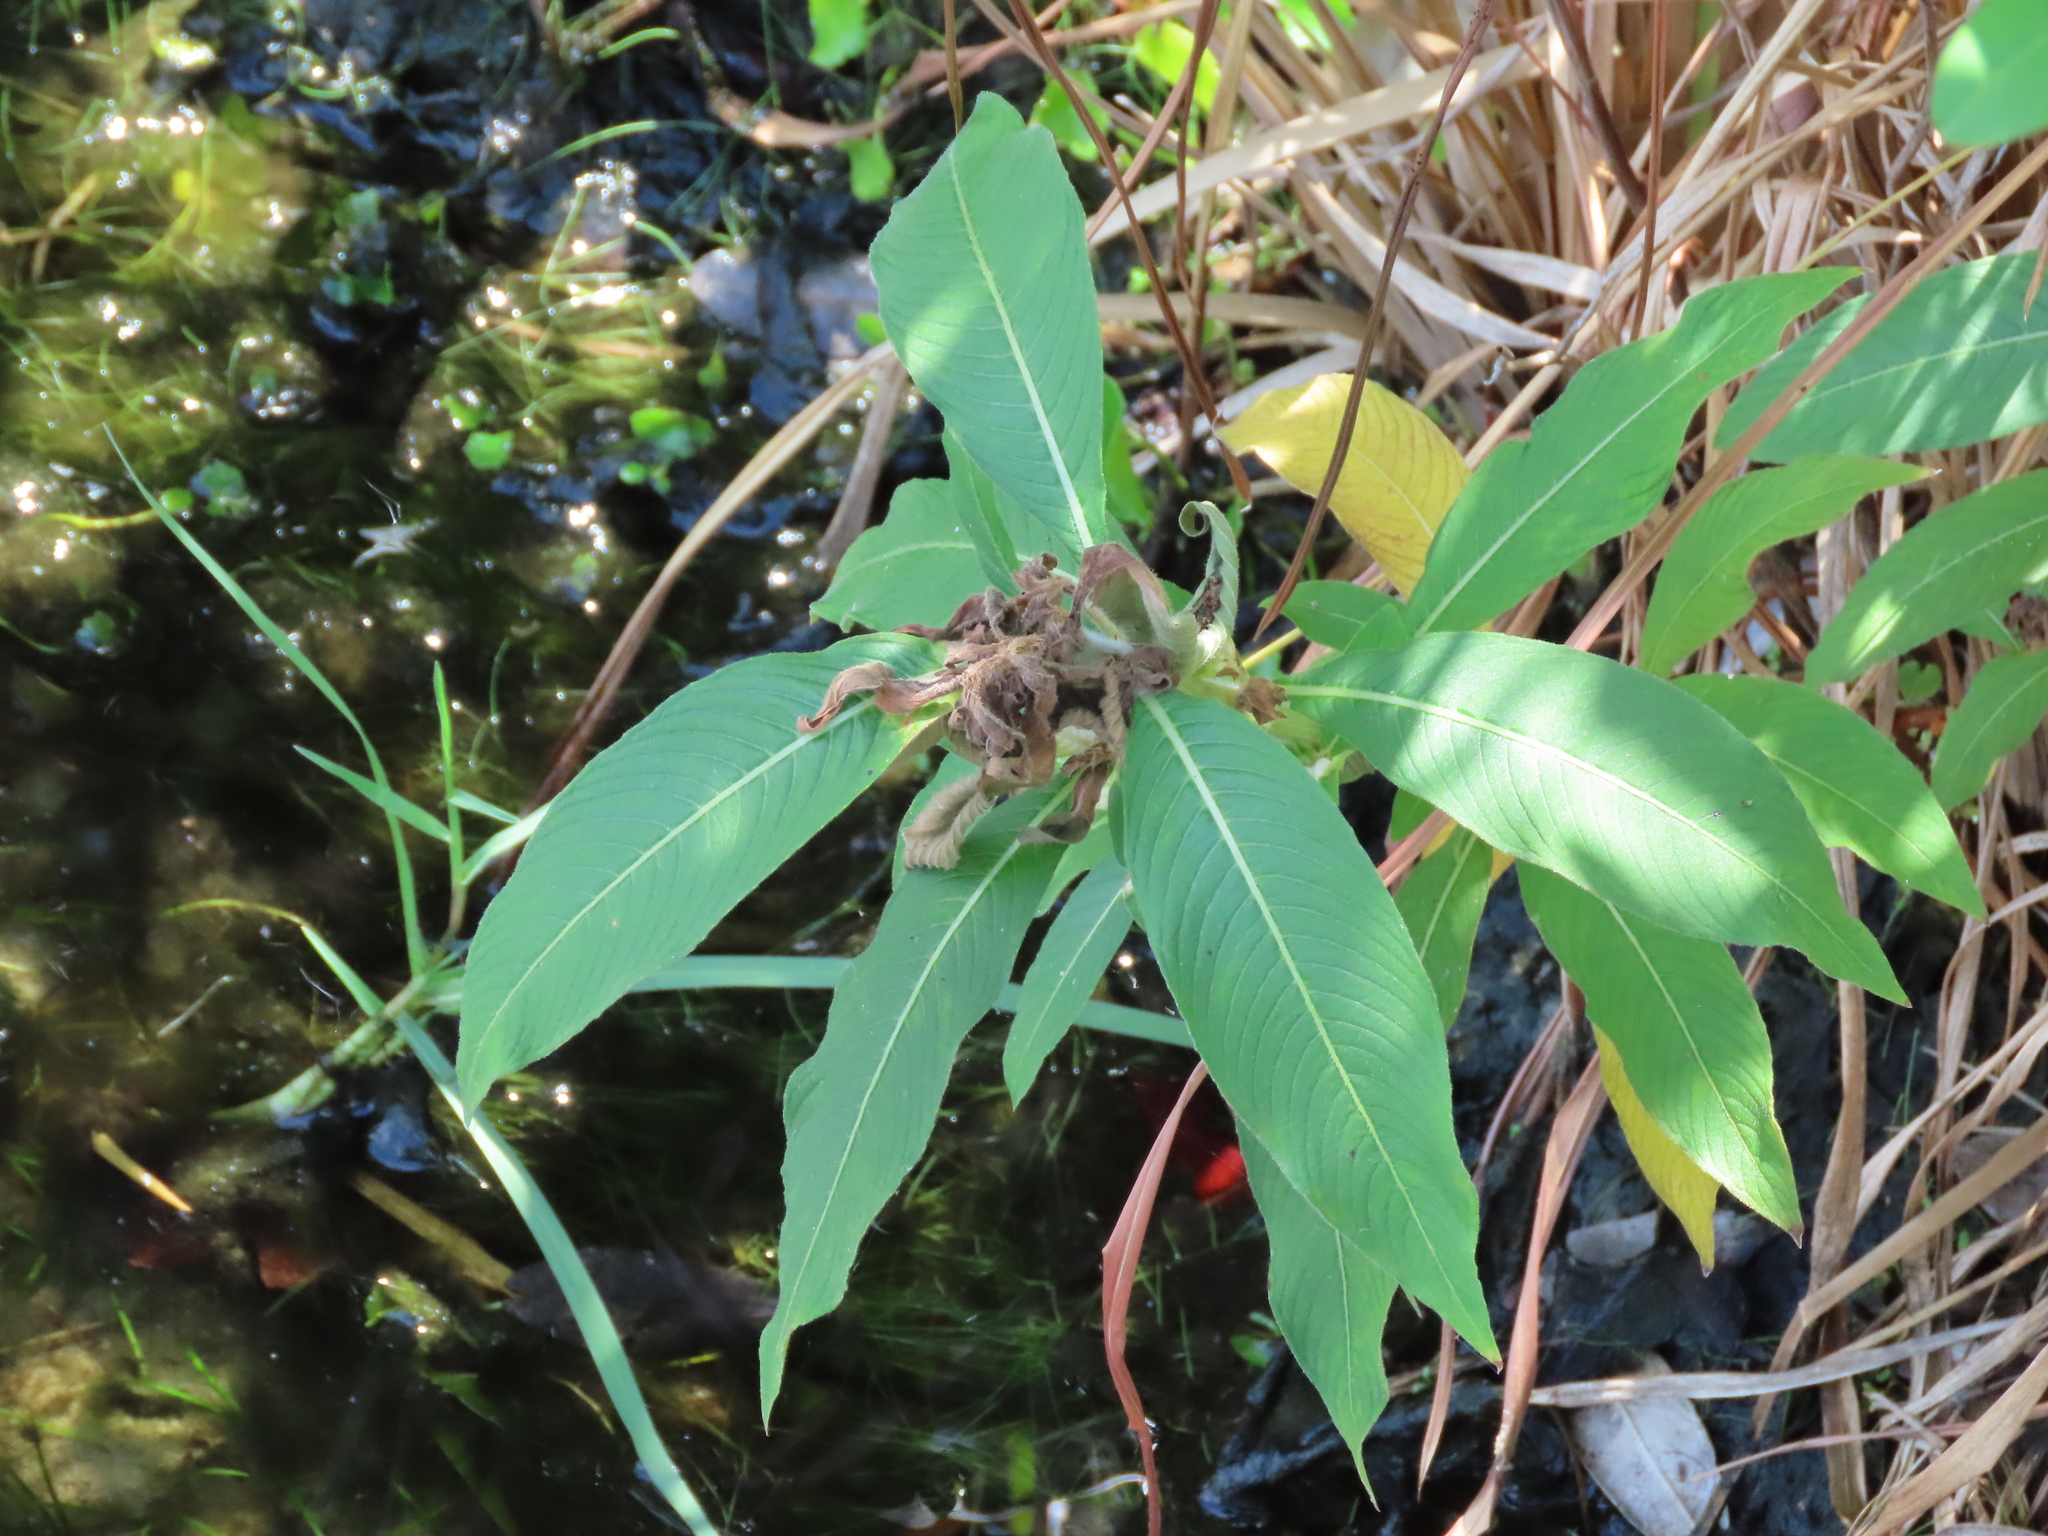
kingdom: Plantae
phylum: Tracheophyta
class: Magnoliopsida
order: Myrtales
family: Onagraceae
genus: Ludwigia
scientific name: Ludwigia peruviana
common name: Peruvian primrose-willow
